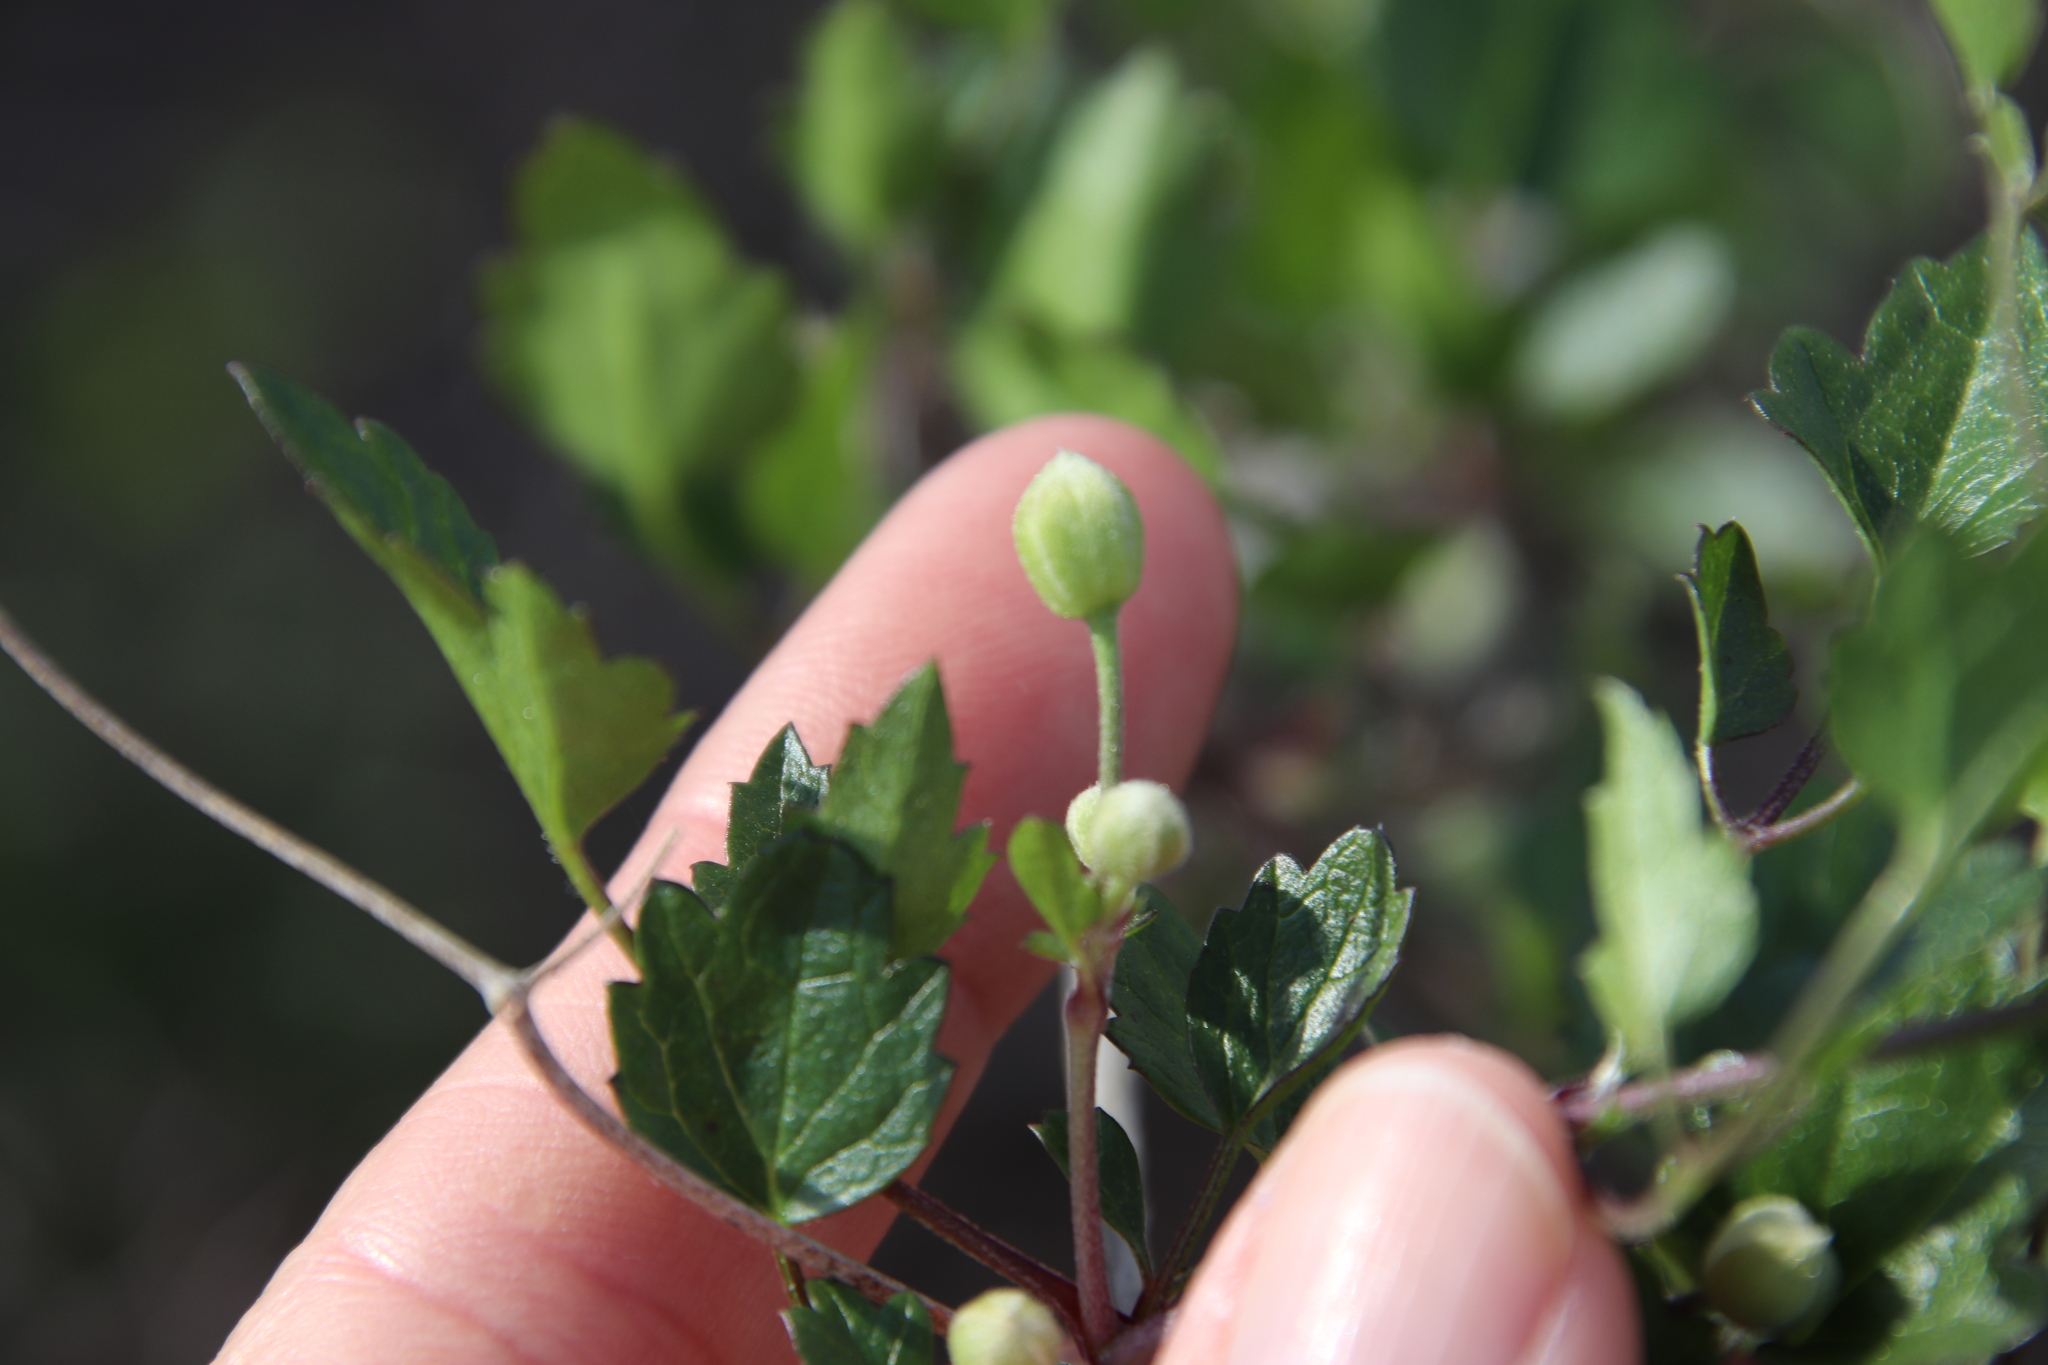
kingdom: Plantae
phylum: Tracheophyta
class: Magnoliopsida
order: Ranunculales
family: Ranunculaceae
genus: Clematis
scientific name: Clematis pauciflora
